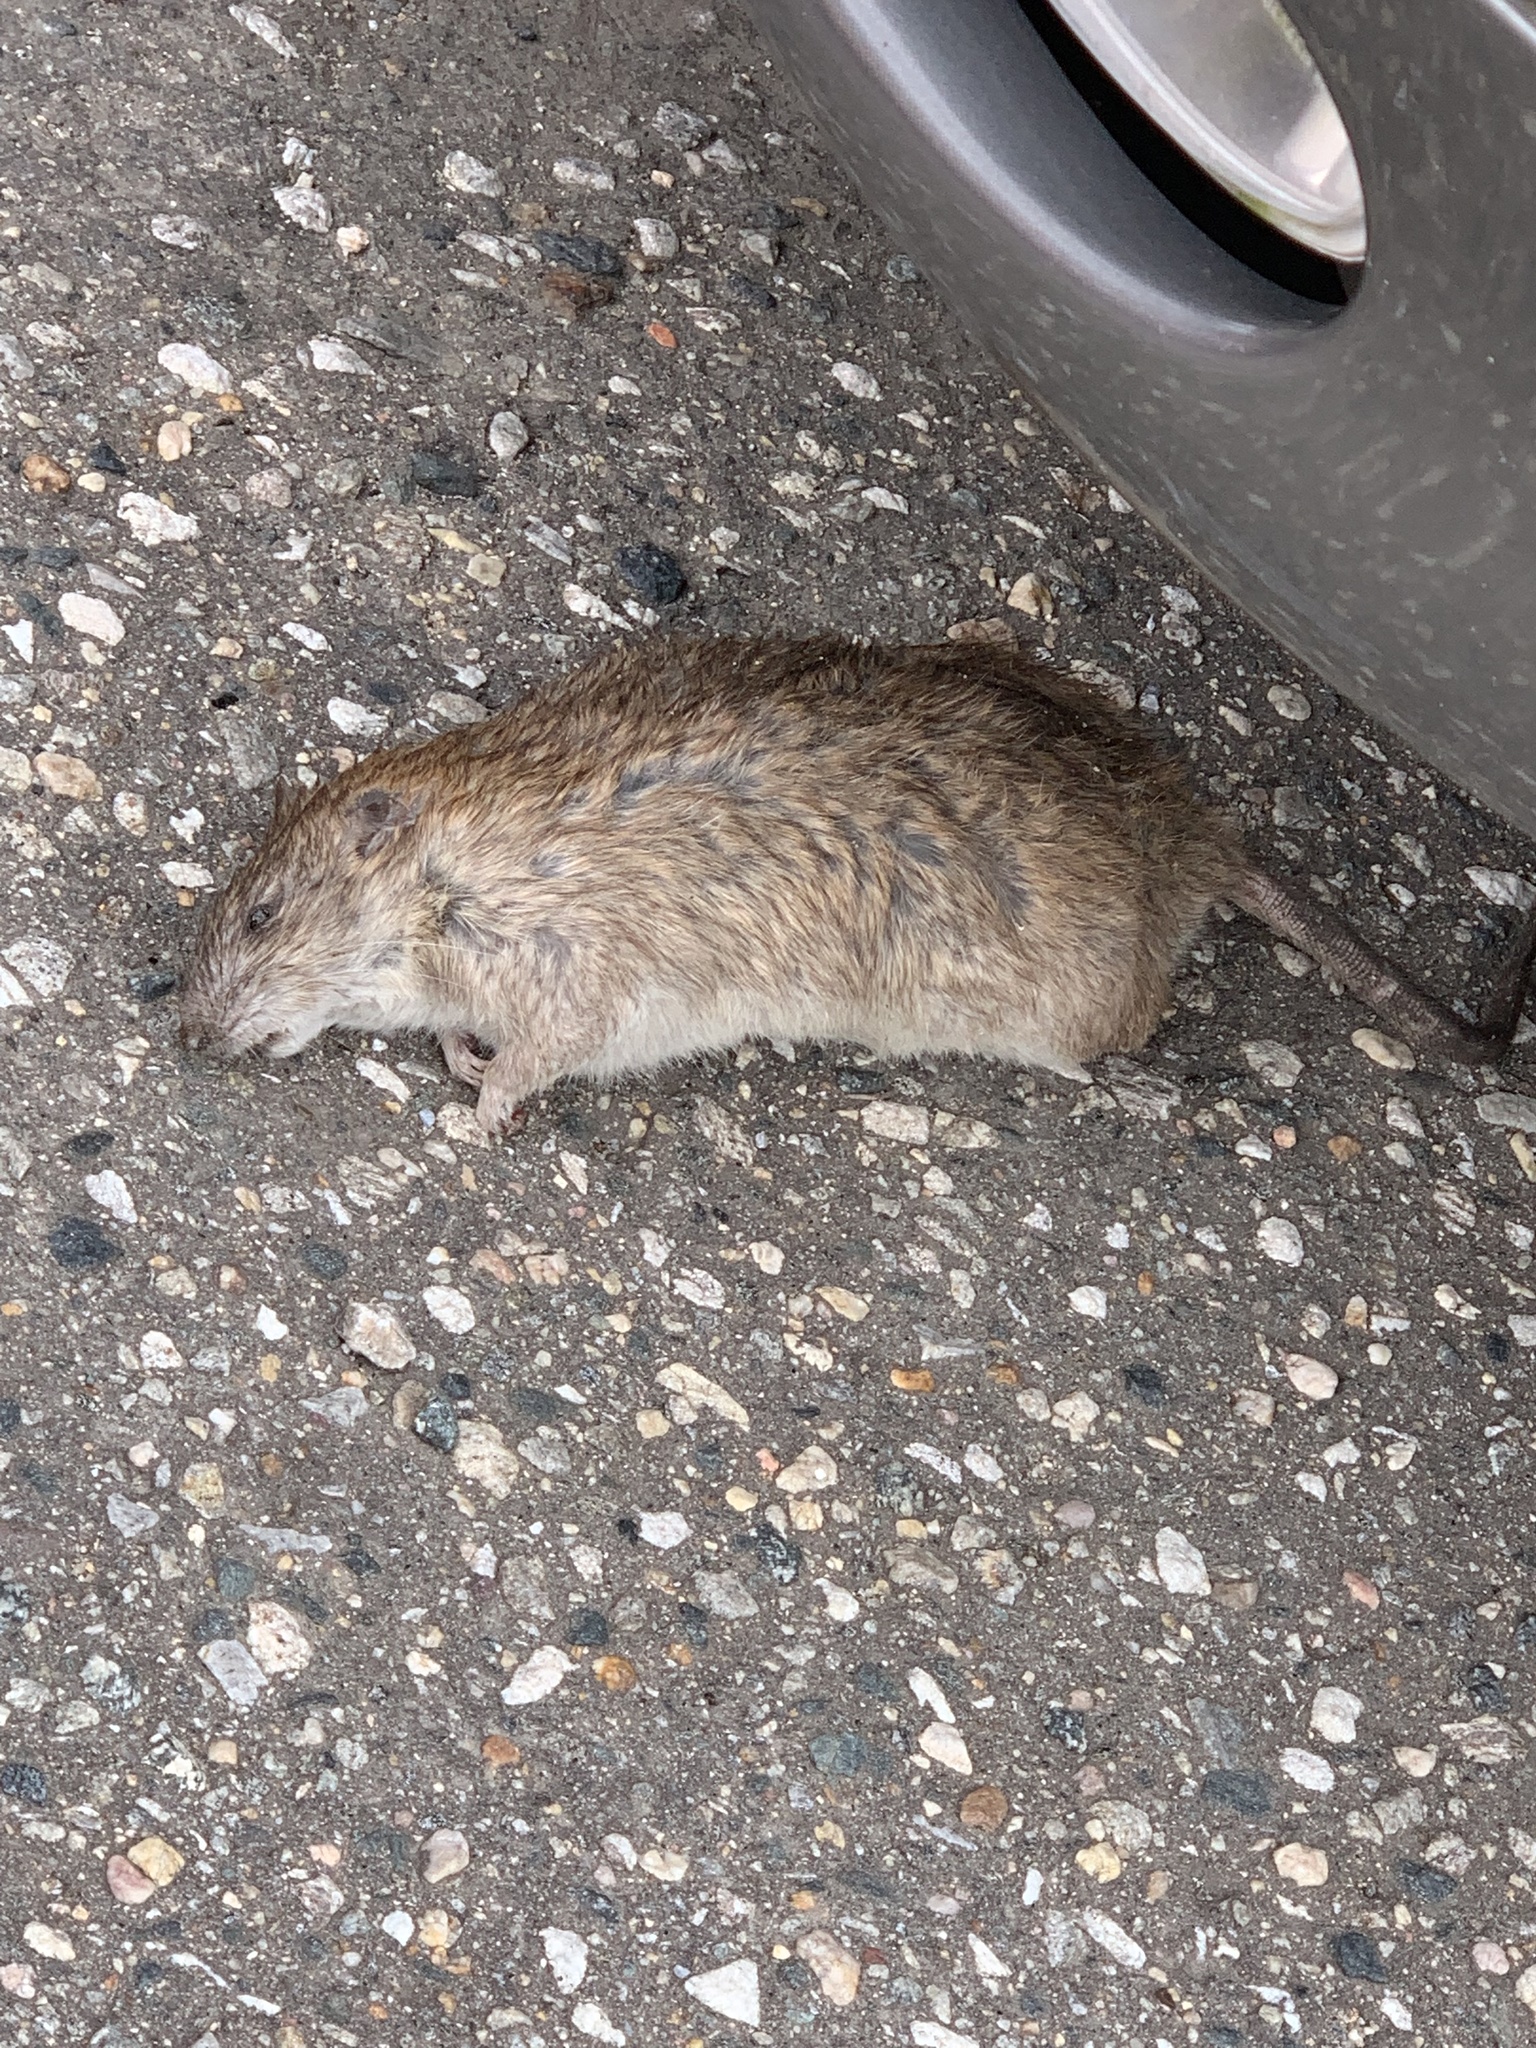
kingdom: Animalia
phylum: Chordata
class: Mammalia
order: Rodentia
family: Muridae
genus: Rattus
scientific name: Rattus norvegicus
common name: Brown rat
